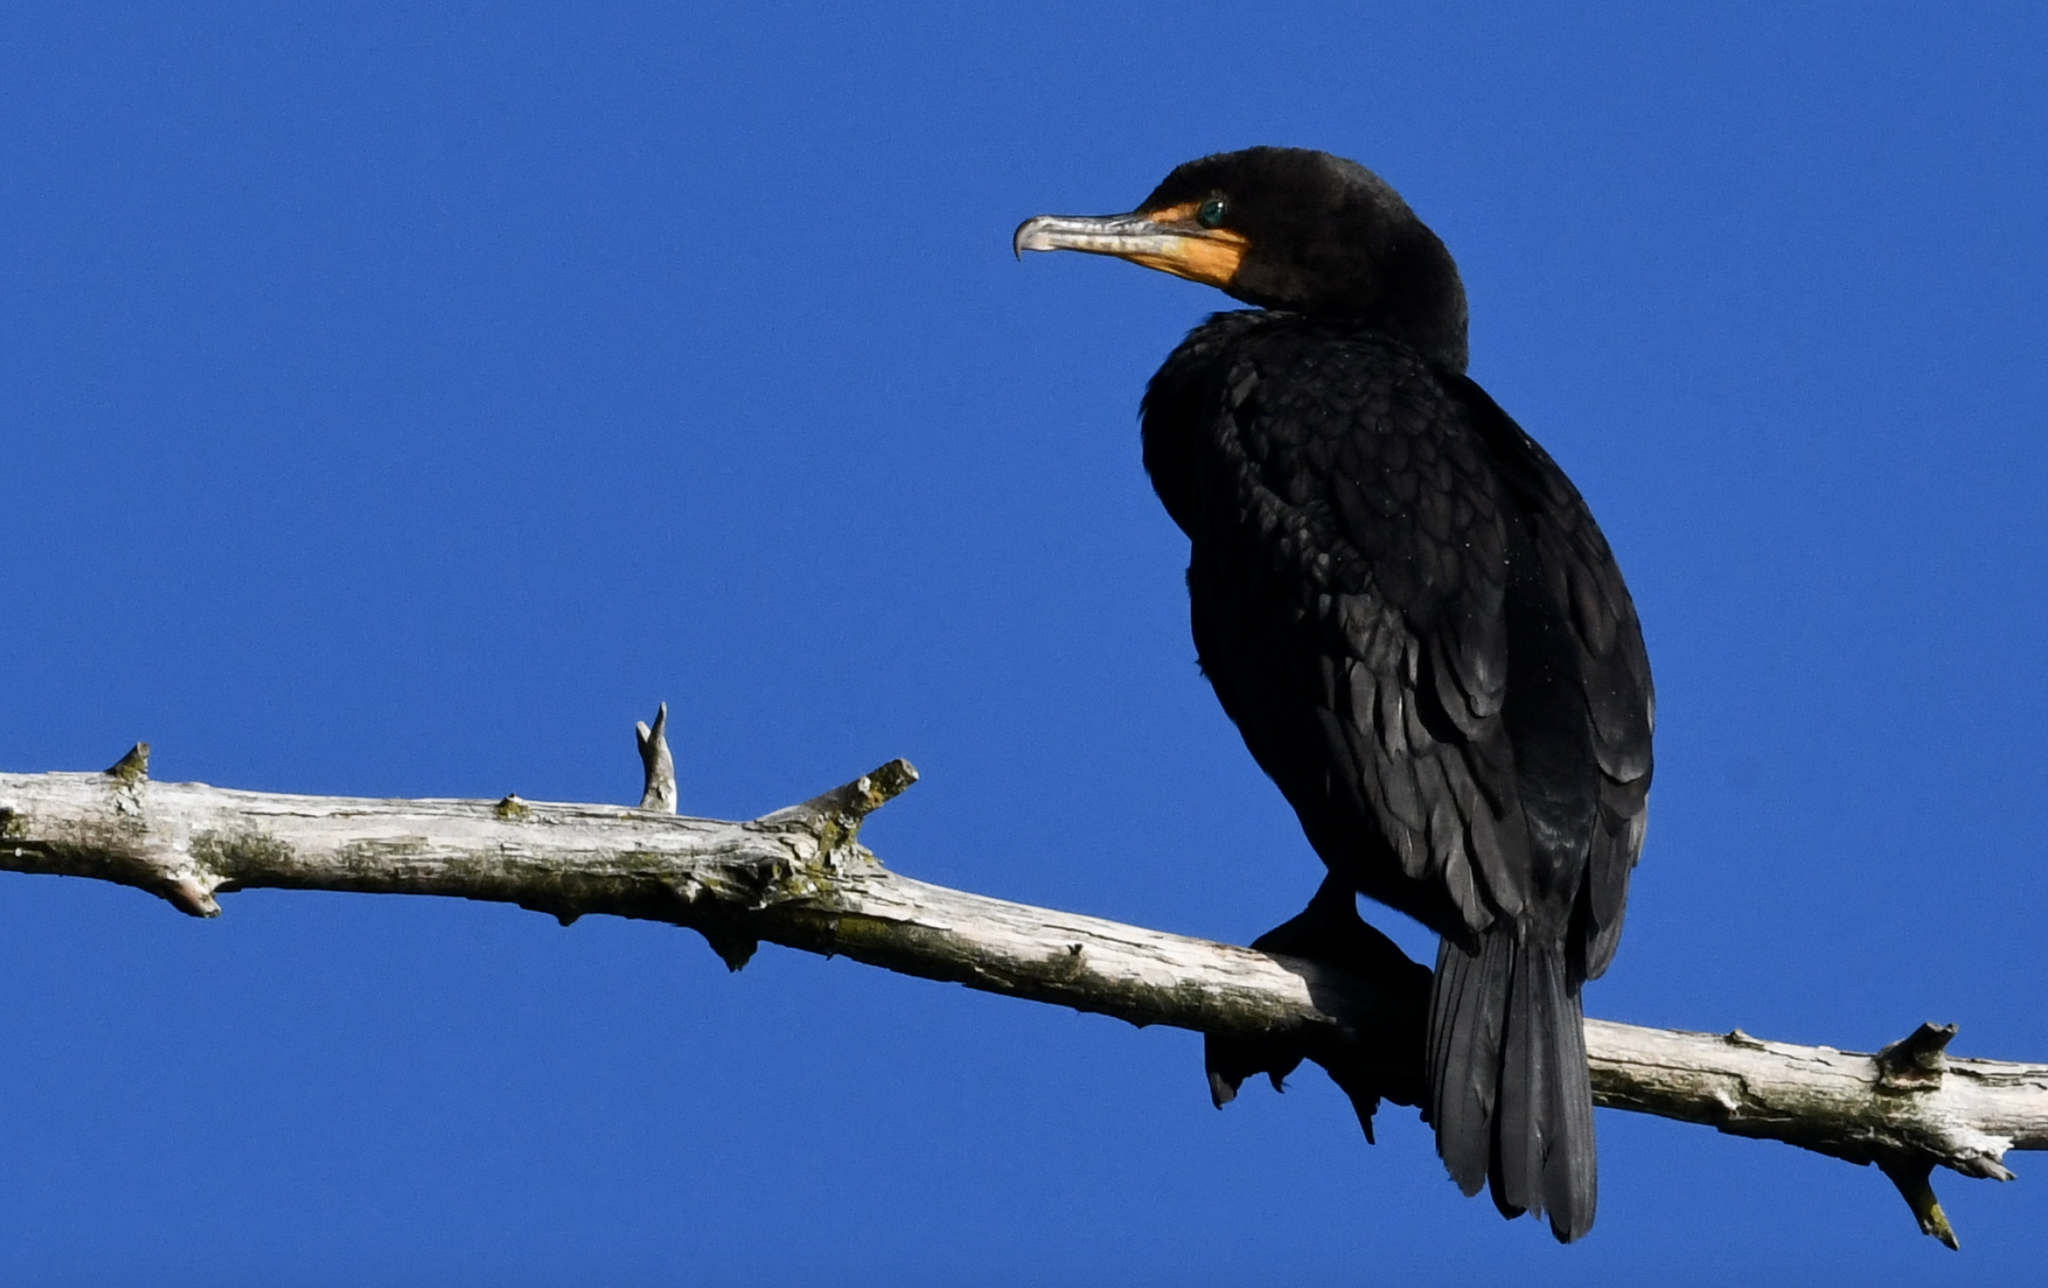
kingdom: Animalia
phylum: Chordata
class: Aves
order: Suliformes
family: Phalacrocoracidae
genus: Phalacrocorax
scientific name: Phalacrocorax auritus
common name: Double-crested cormorant
